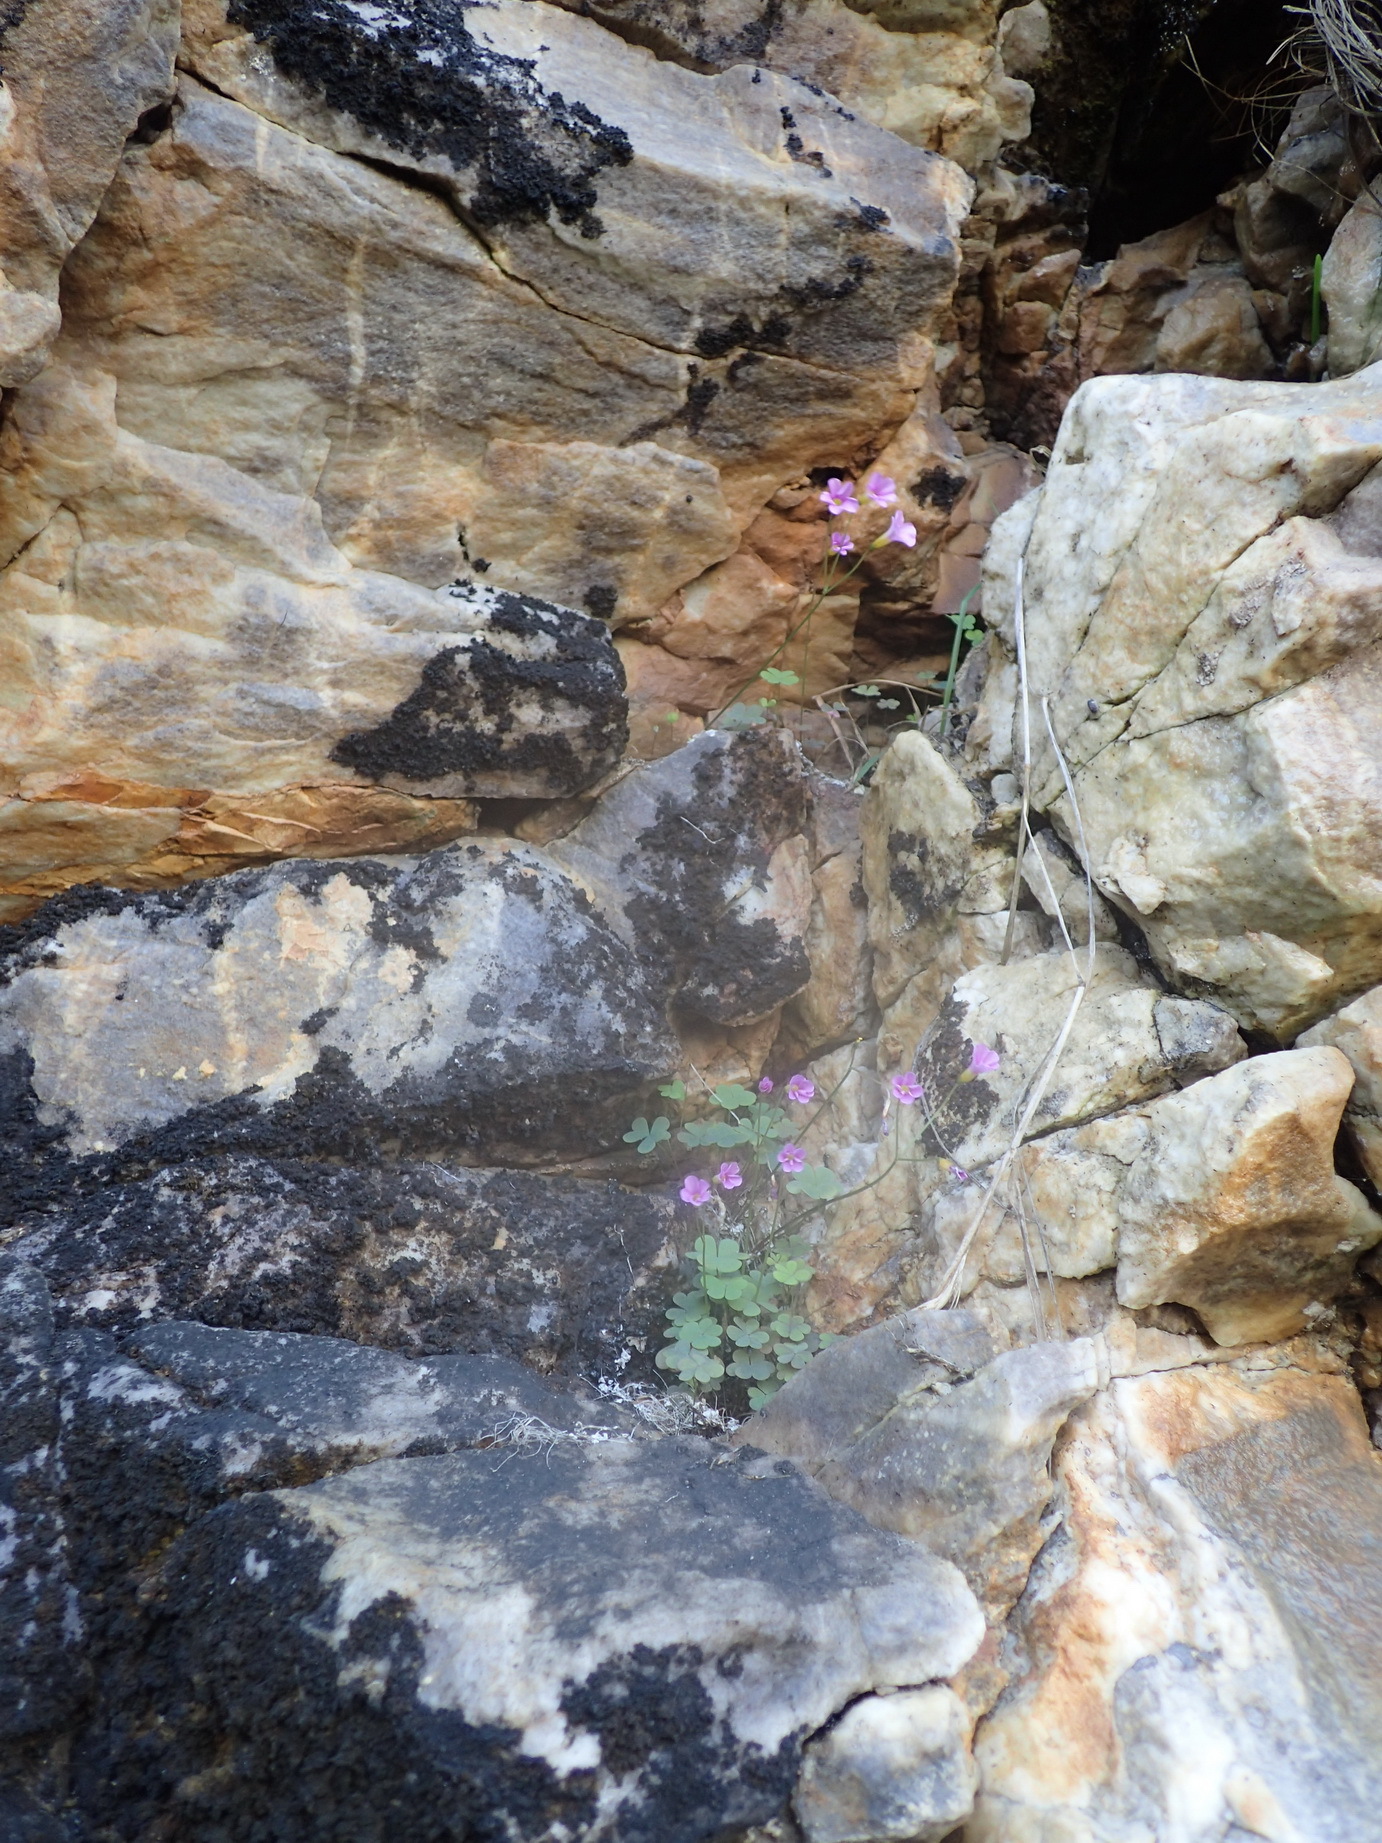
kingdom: Plantae
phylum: Tracheophyta
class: Magnoliopsida
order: Oxalidales
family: Oxalidaceae
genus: Oxalis
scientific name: Oxalis caprina
